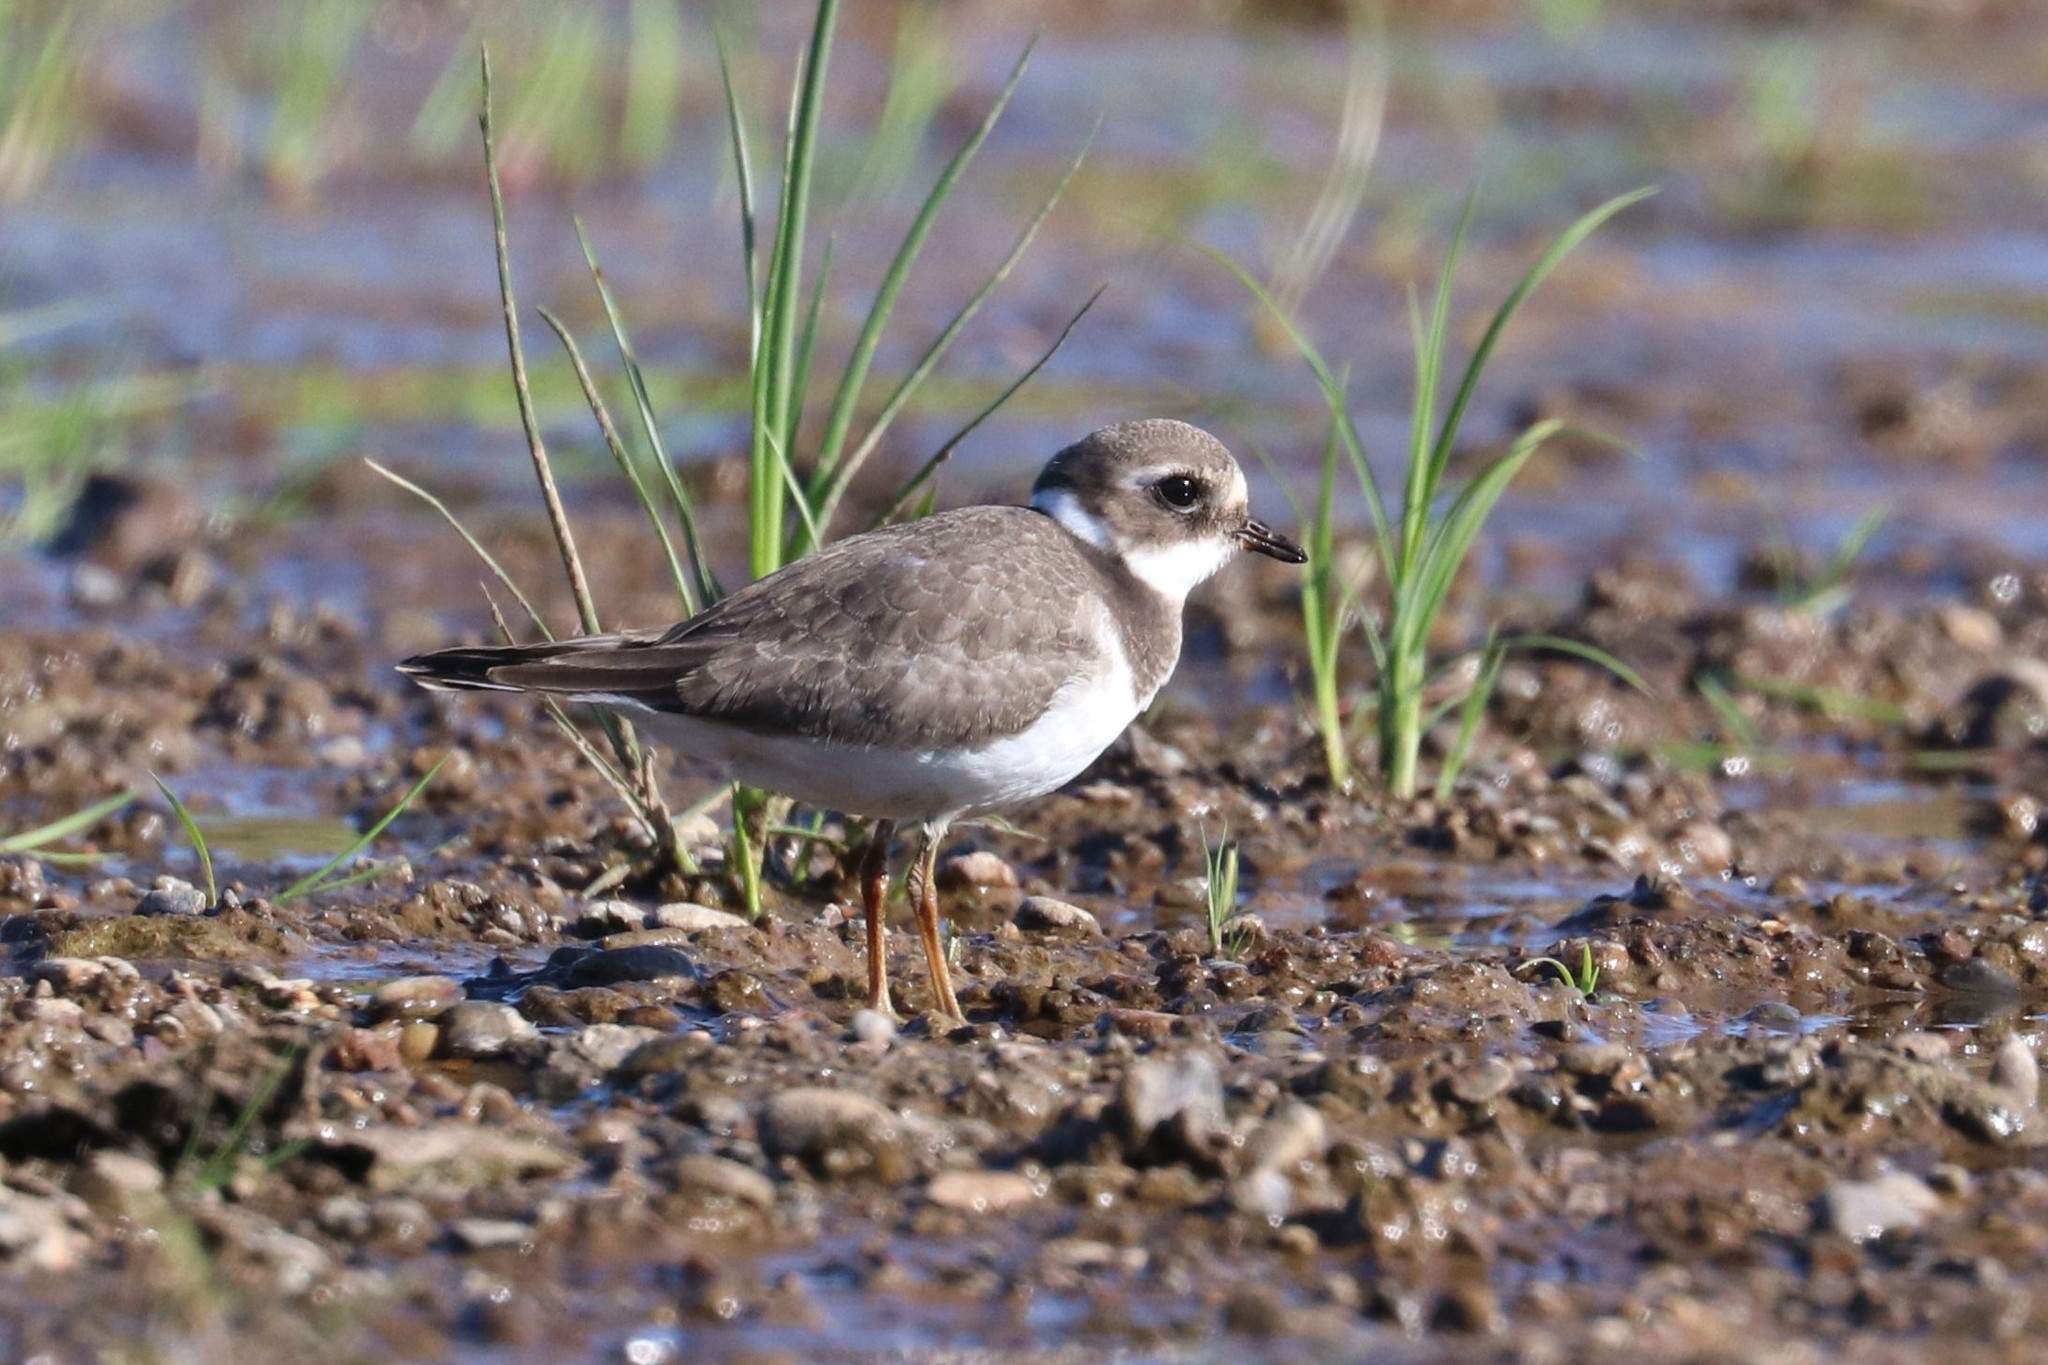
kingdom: Animalia
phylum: Chordata
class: Aves
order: Charadriiformes
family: Charadriidae
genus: Charadrius
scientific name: Charadrius hiaticula
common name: Common ringed plover
